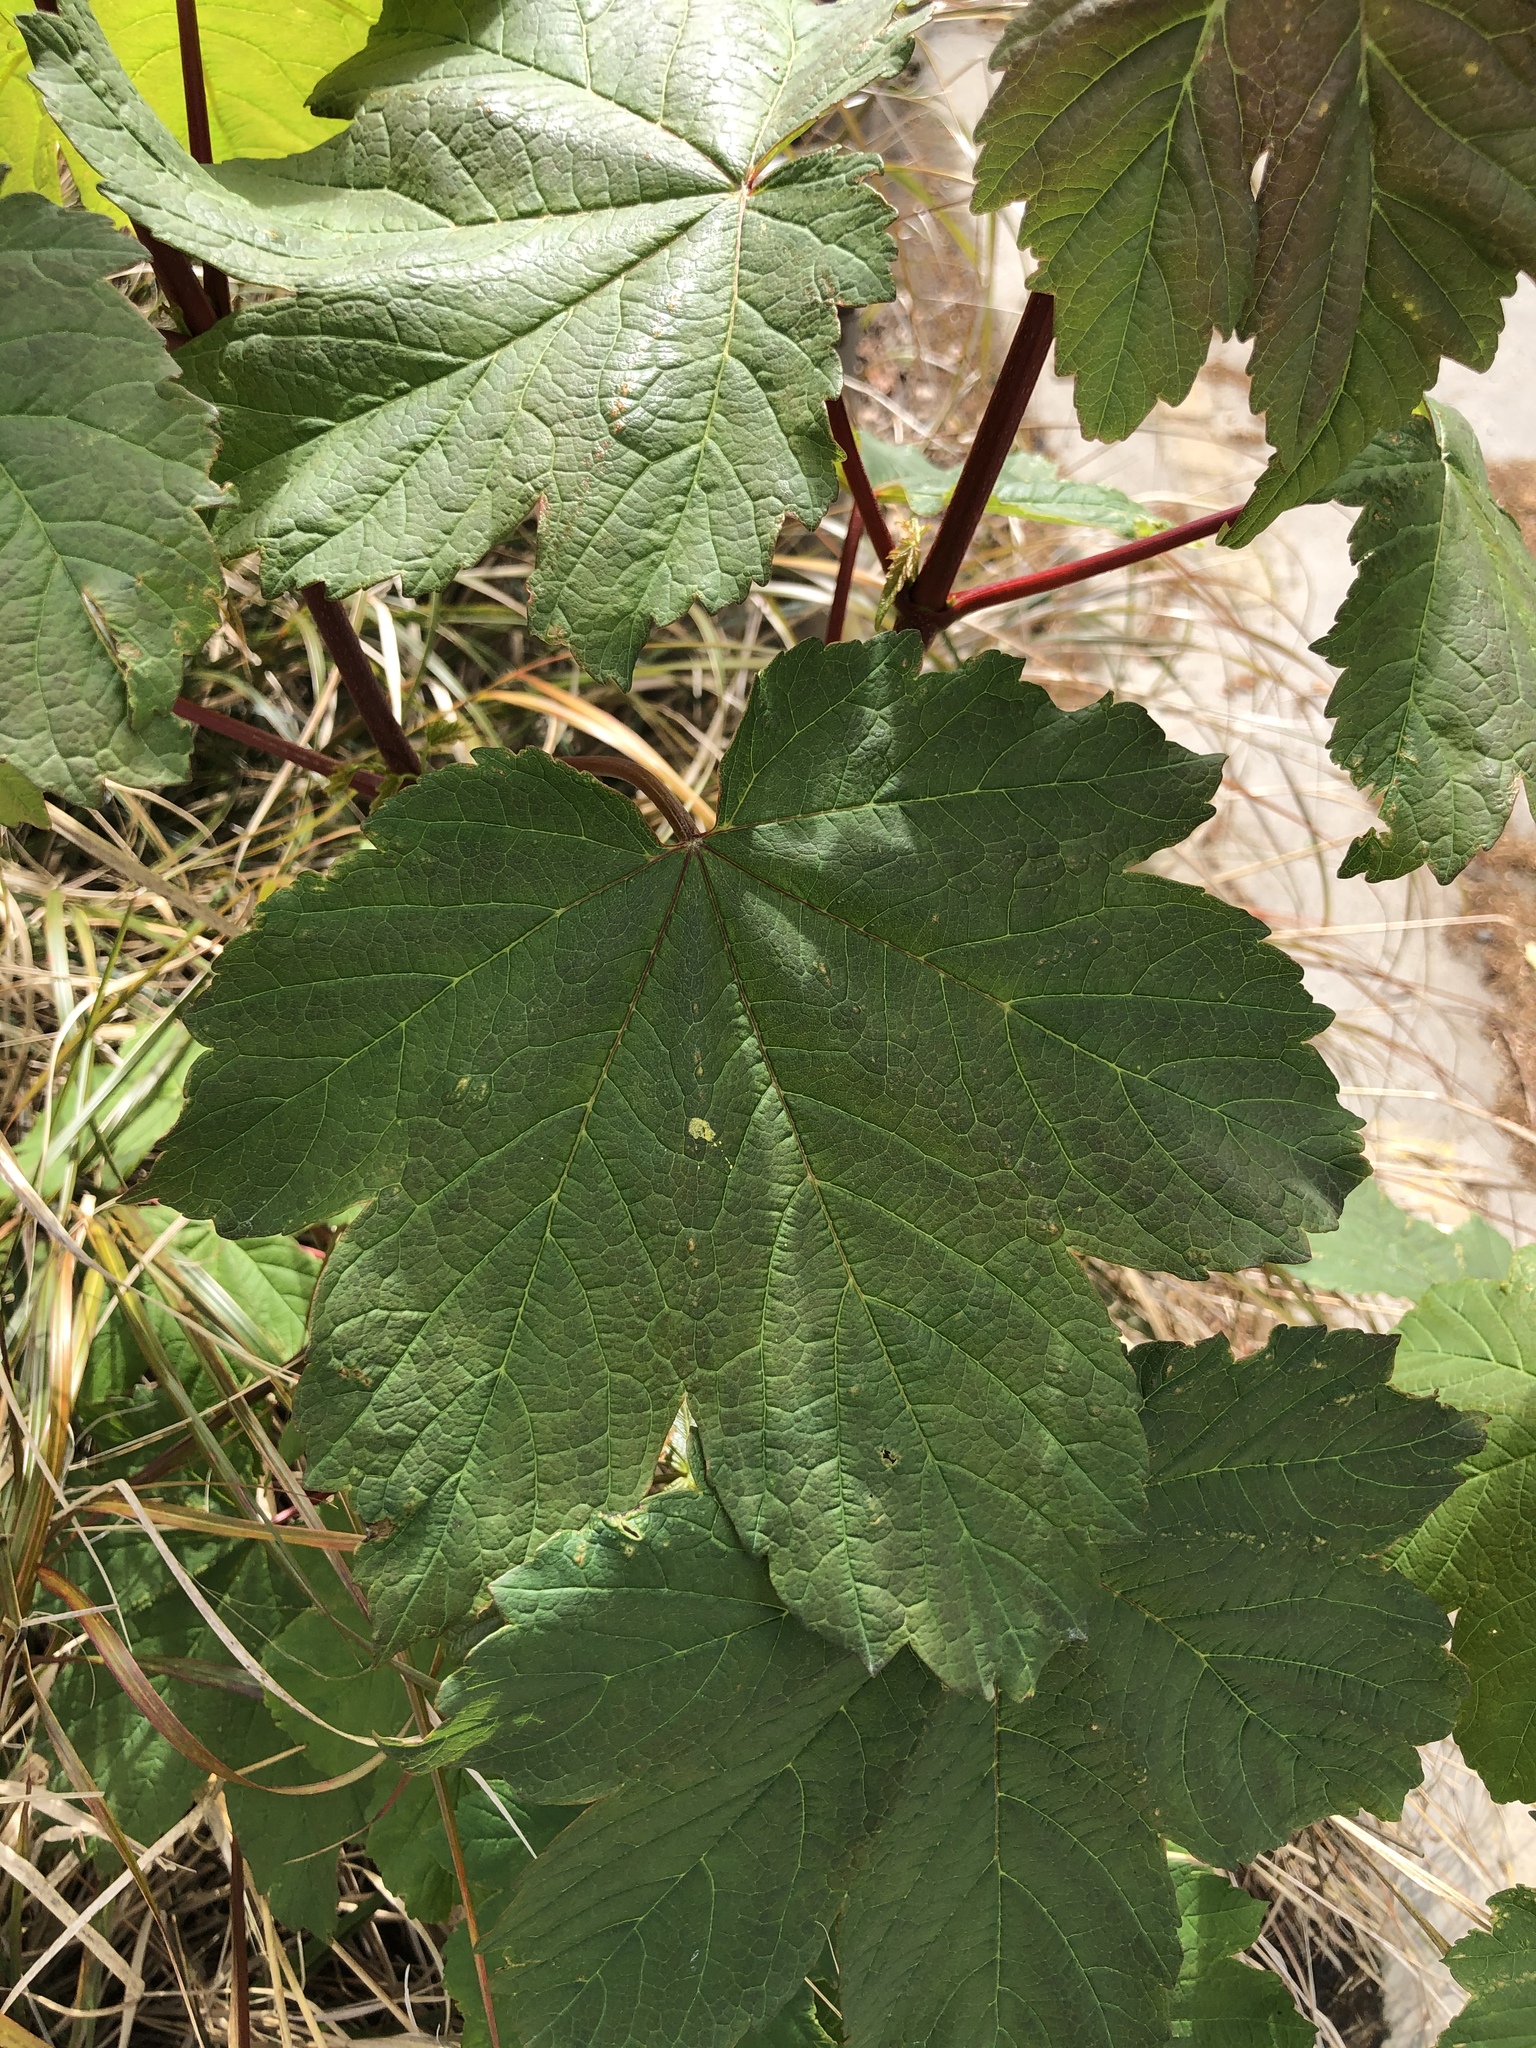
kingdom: Plantae
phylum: Tracheophyta
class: Magnoliopsida
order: Sapindales
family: Sapindaceae
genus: Acer
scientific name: Acer pseudoplatanus
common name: Sycamore
